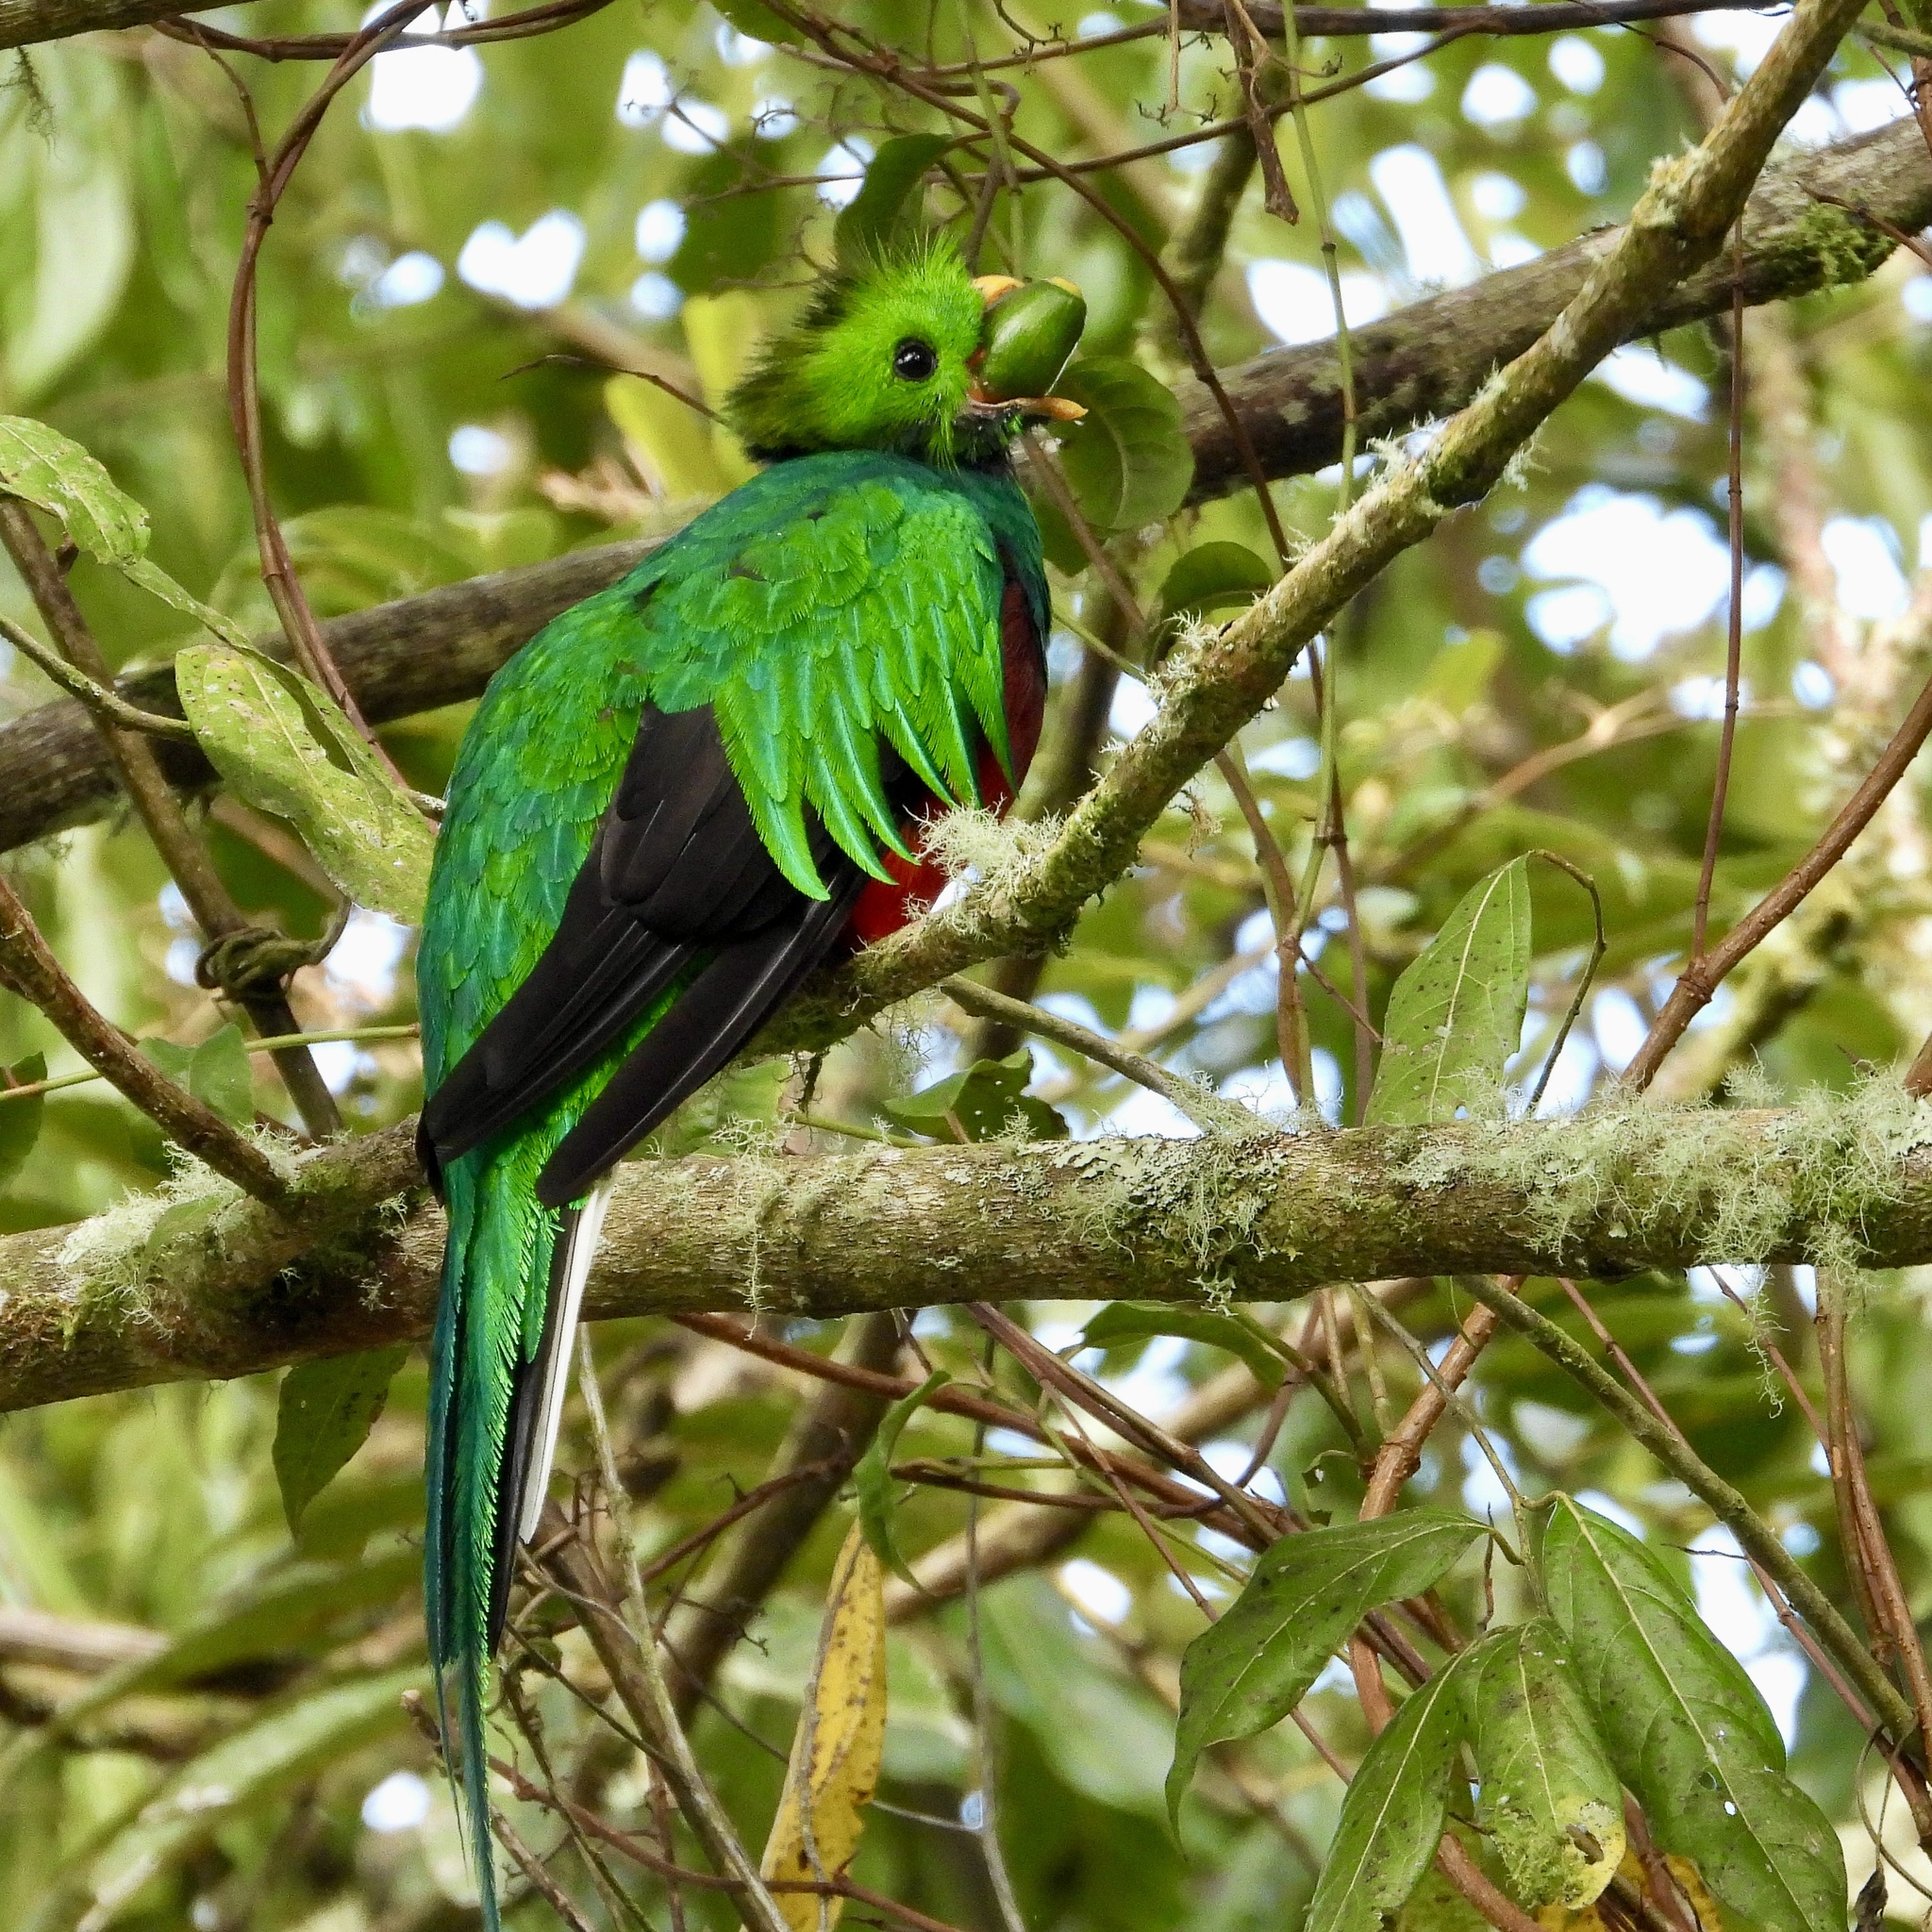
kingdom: Animalia
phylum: Chordata
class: Aves
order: Trogoniformes
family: Trogonidae
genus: Pharomachrus
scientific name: Pharomachrus mocinno
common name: Resplendent quetzal
